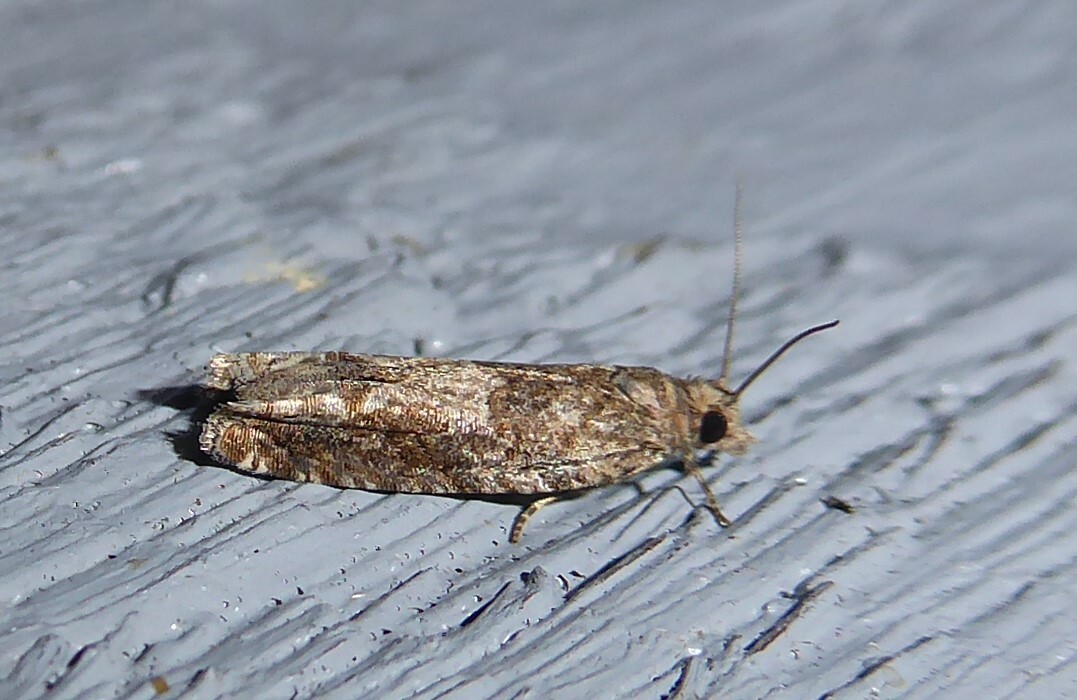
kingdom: Animalia
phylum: Arthropoda
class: Insecta
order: Lepidoptera
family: Tortricidae
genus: Crocidosema
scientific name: Crocidosema plebejana
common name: Southern bell
